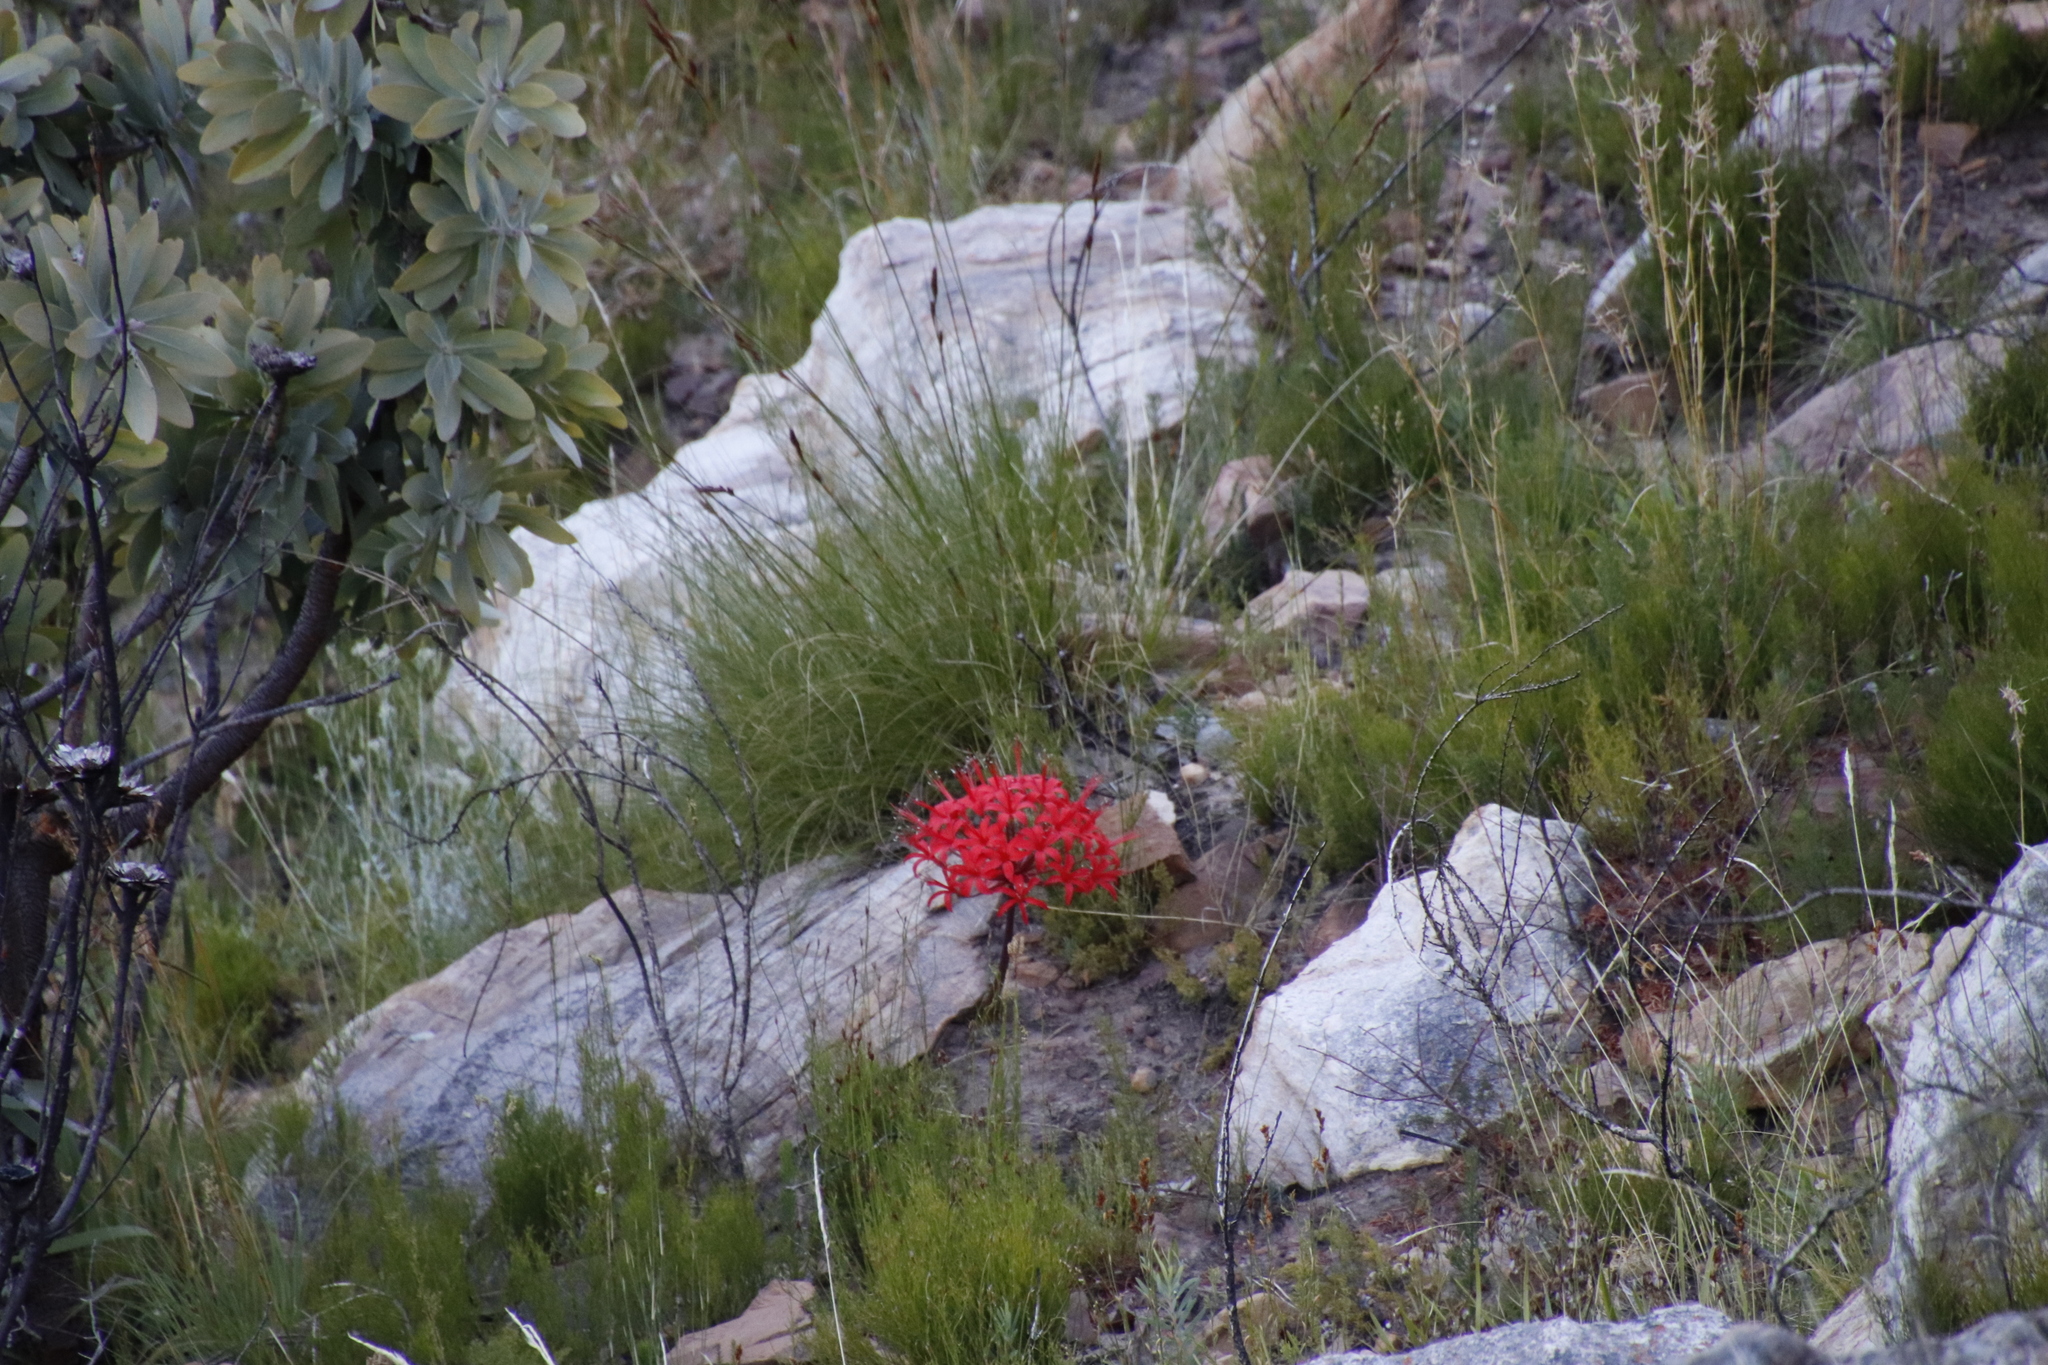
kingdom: Plantae
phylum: Tracheophyta
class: Liliopsida
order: Asparagales
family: Amaryllidaceae
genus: Brunsvigia
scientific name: Brunsvigia marginata
